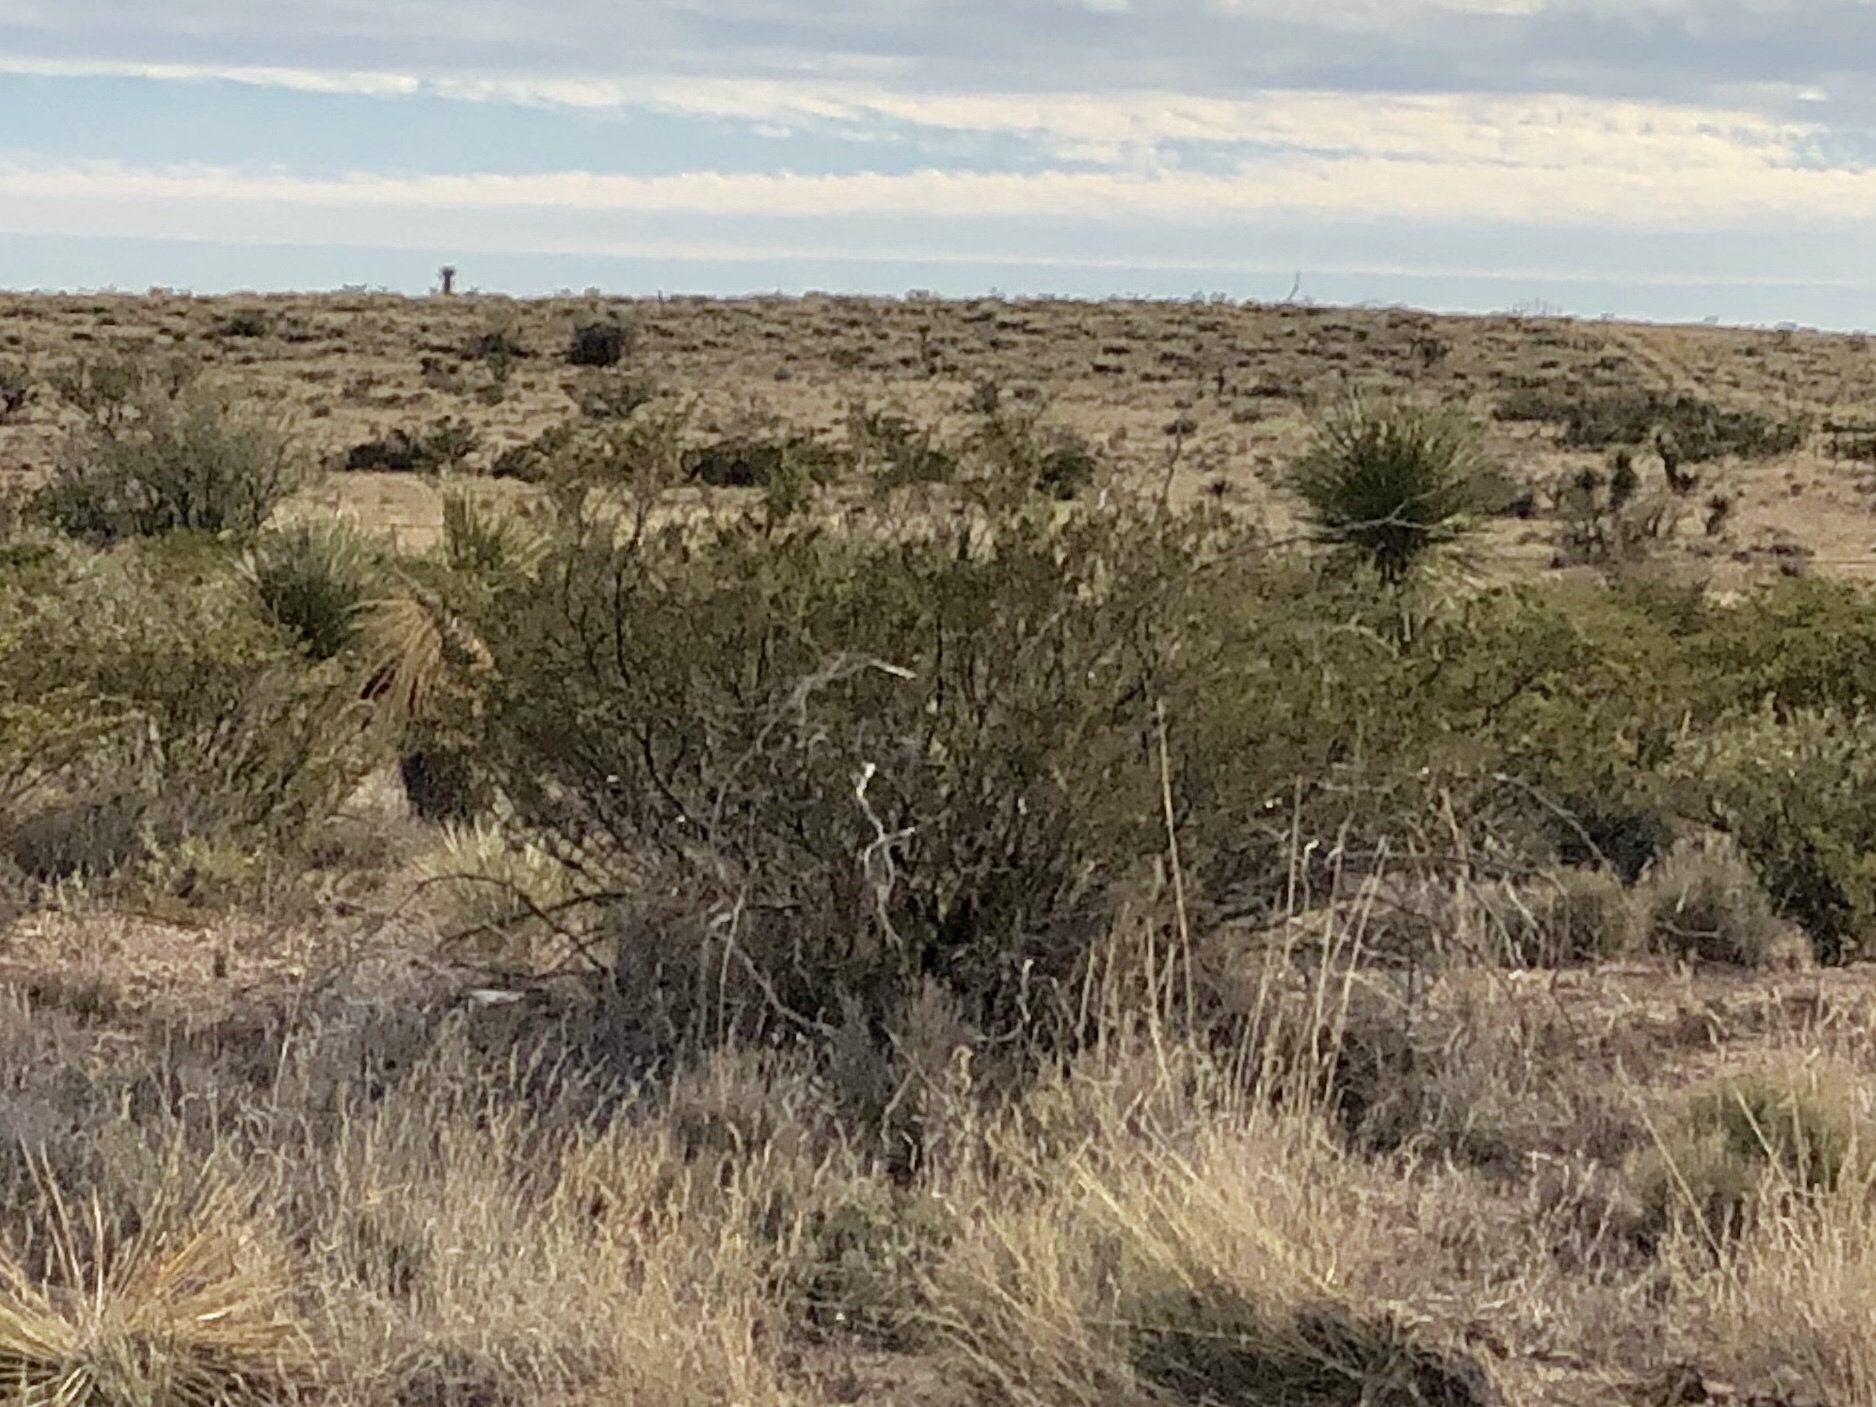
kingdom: Plantae
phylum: Tracheophyta
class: Magnoliopsida
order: Zygophyllales
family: Zygophyllaceae
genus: Larrea
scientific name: Larrea tridentata
